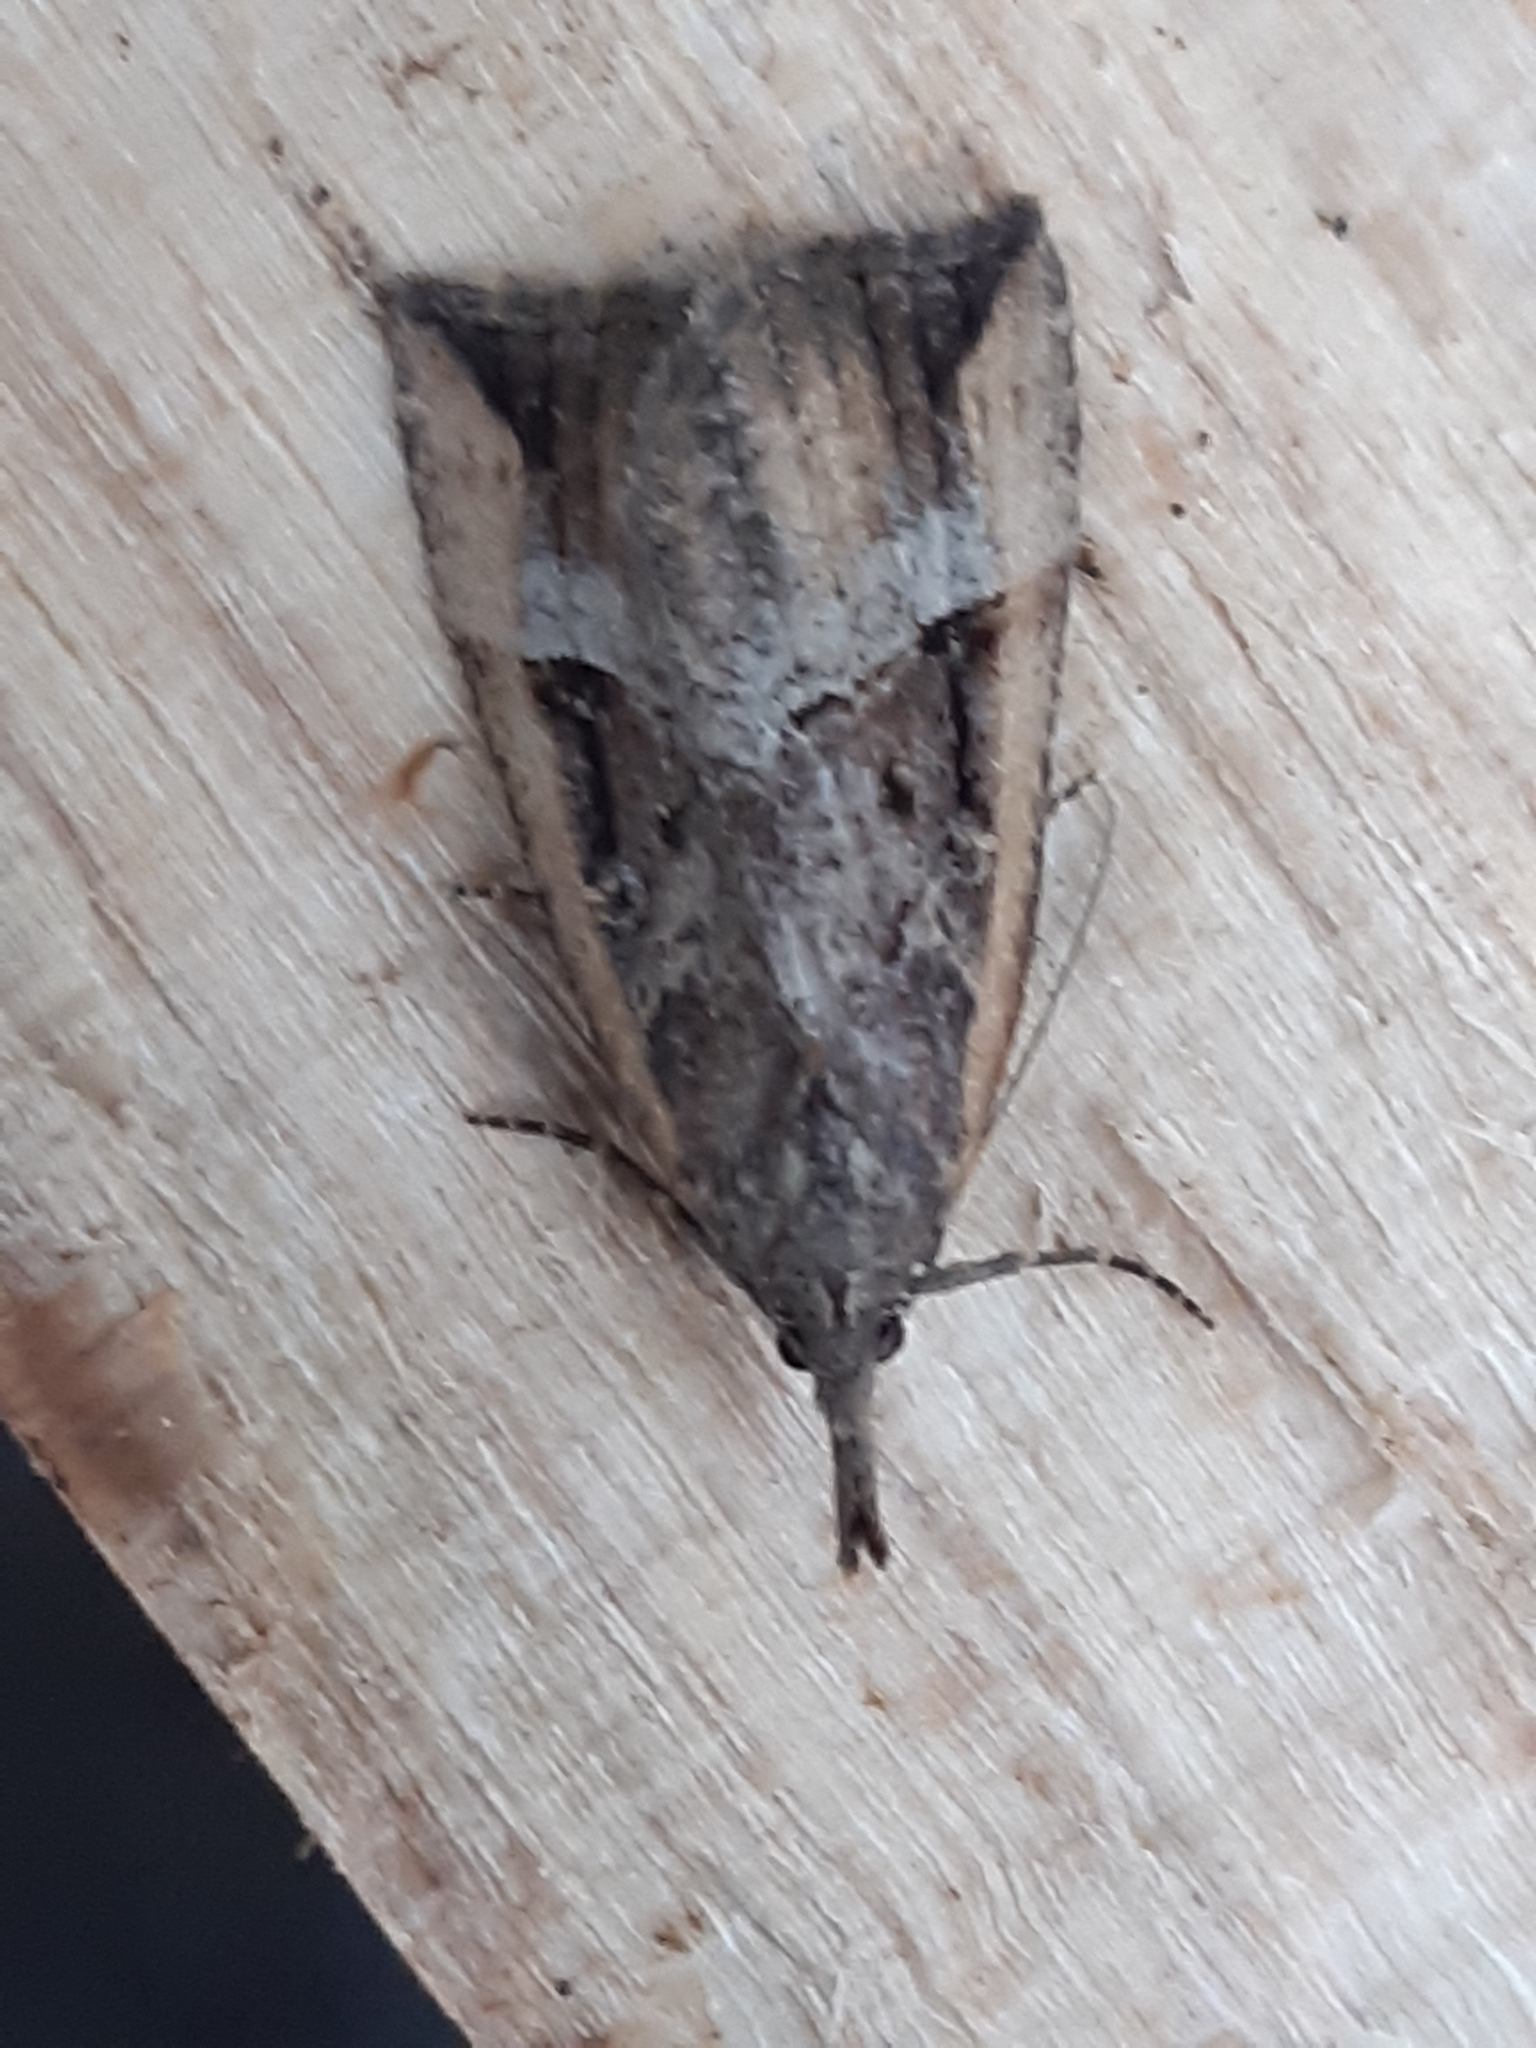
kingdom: Animalia
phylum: Arthropoda
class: Insecta
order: Lepidoptera
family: Erebidae
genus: Hypena
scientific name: Hypena rostralis
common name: Buttoned snout
